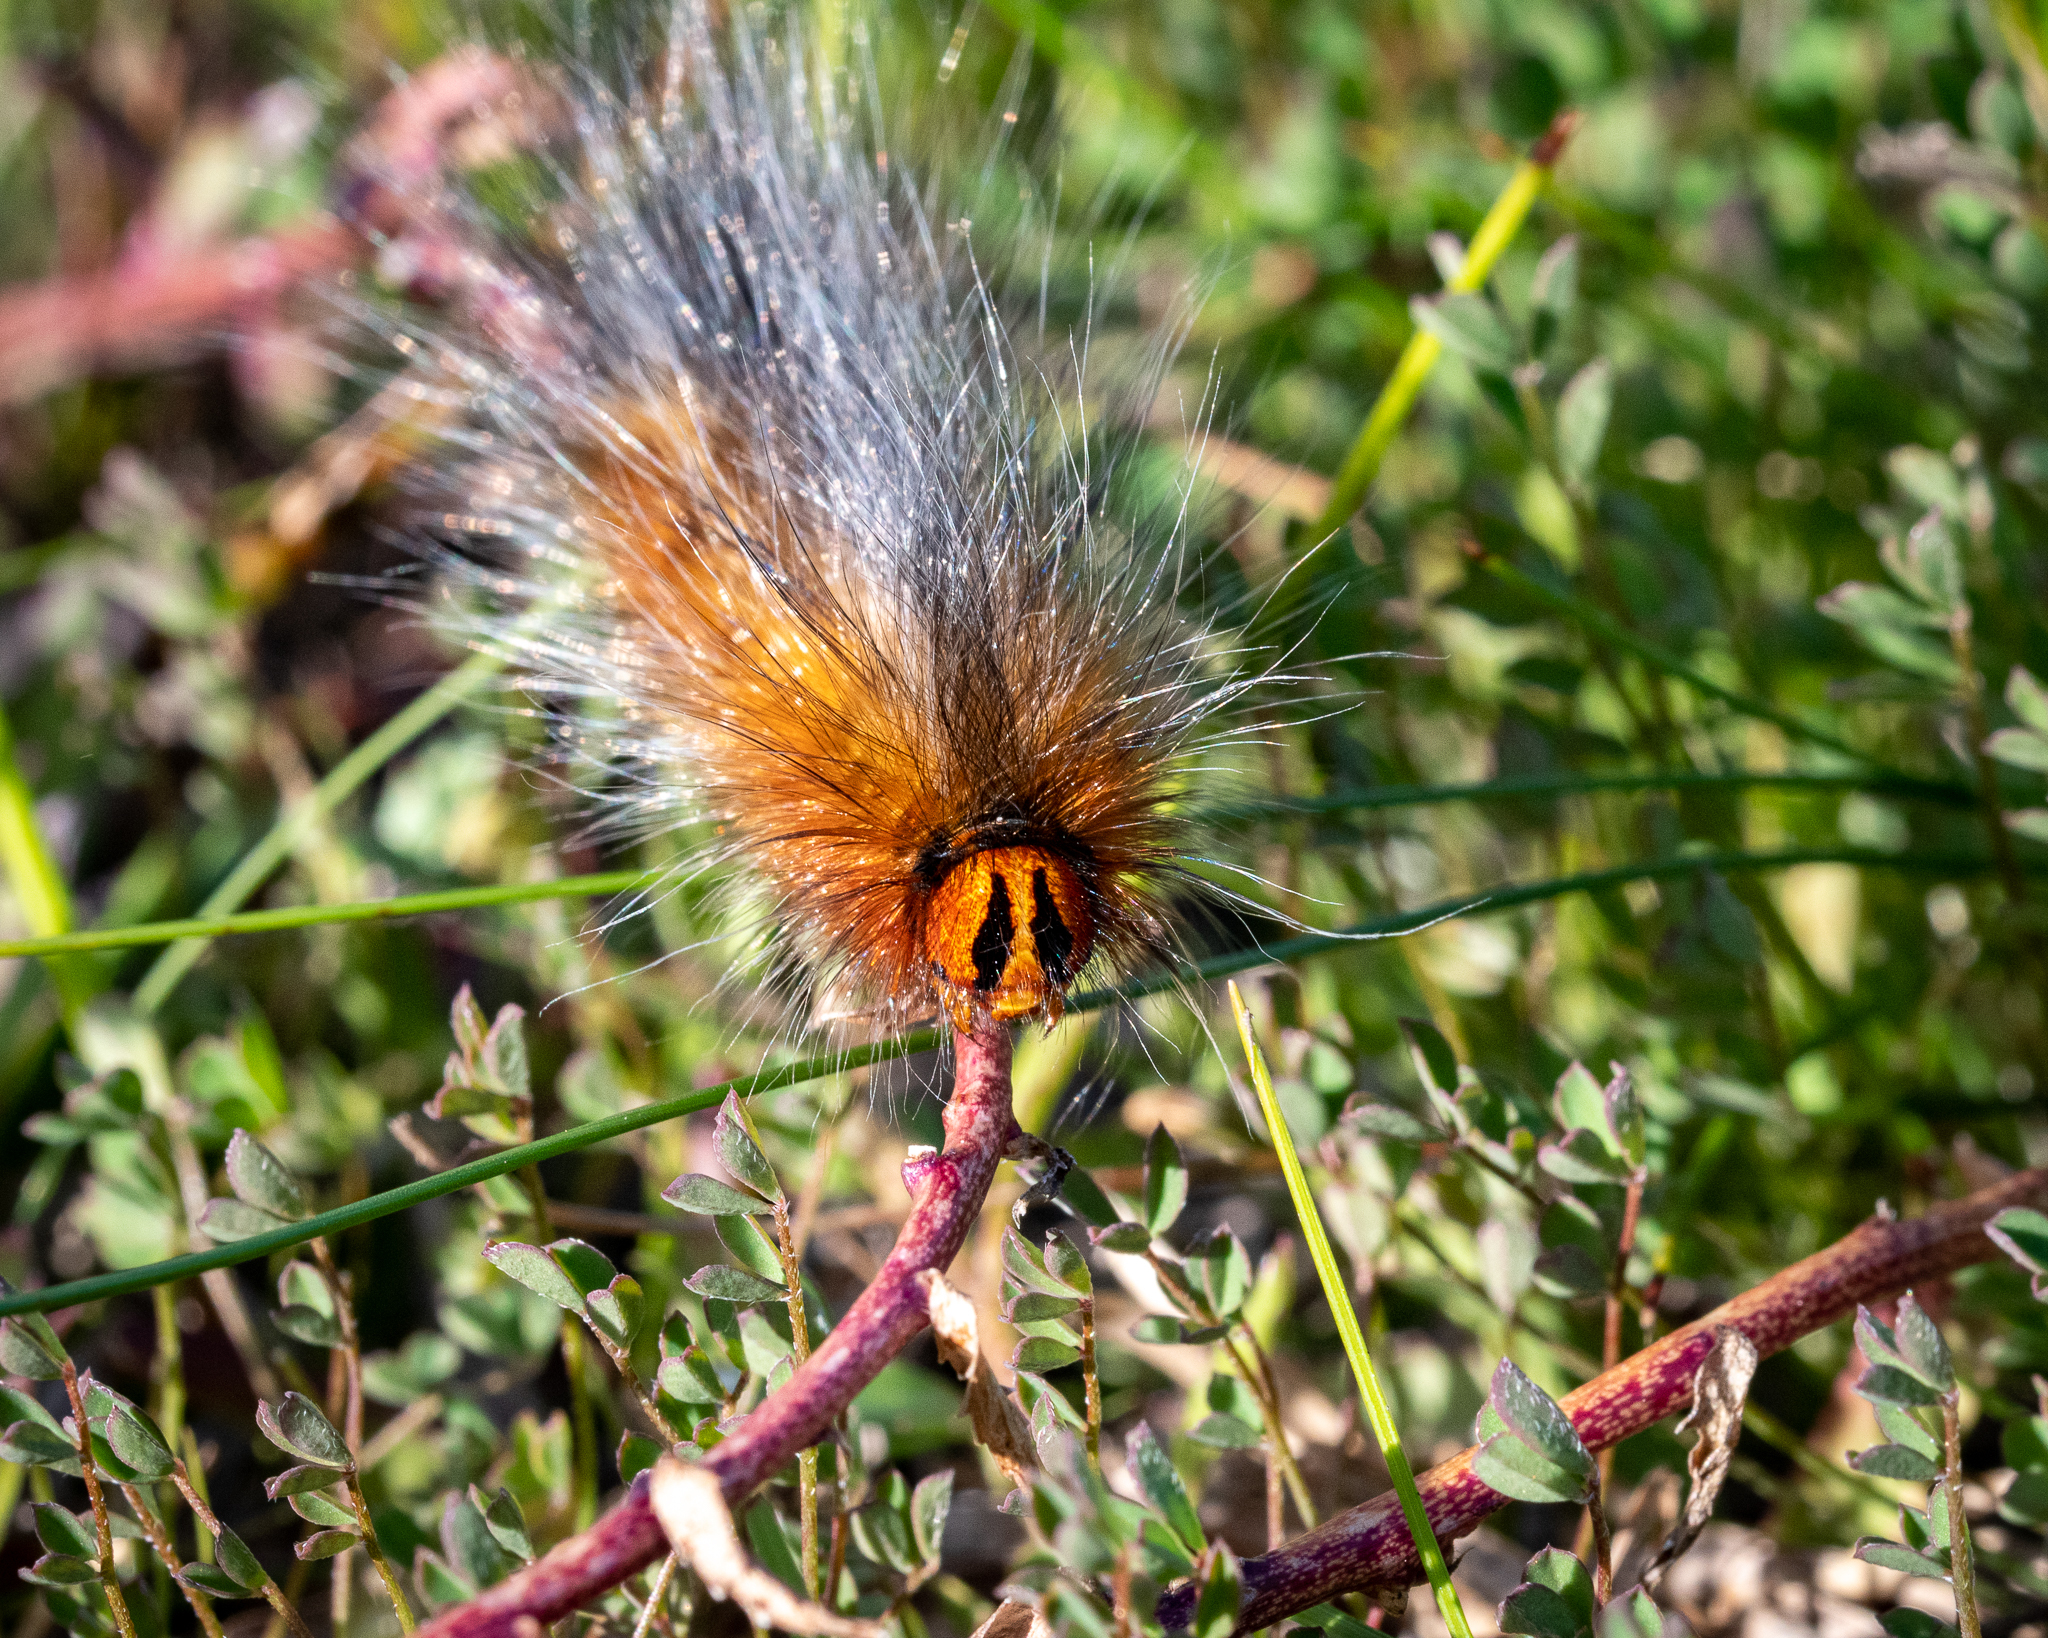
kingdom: Animalia
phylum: Arthropoda
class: Insecta
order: Lepidoptera
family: Lasiocampidae
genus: Mesocelis
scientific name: Mesocelis monticola
